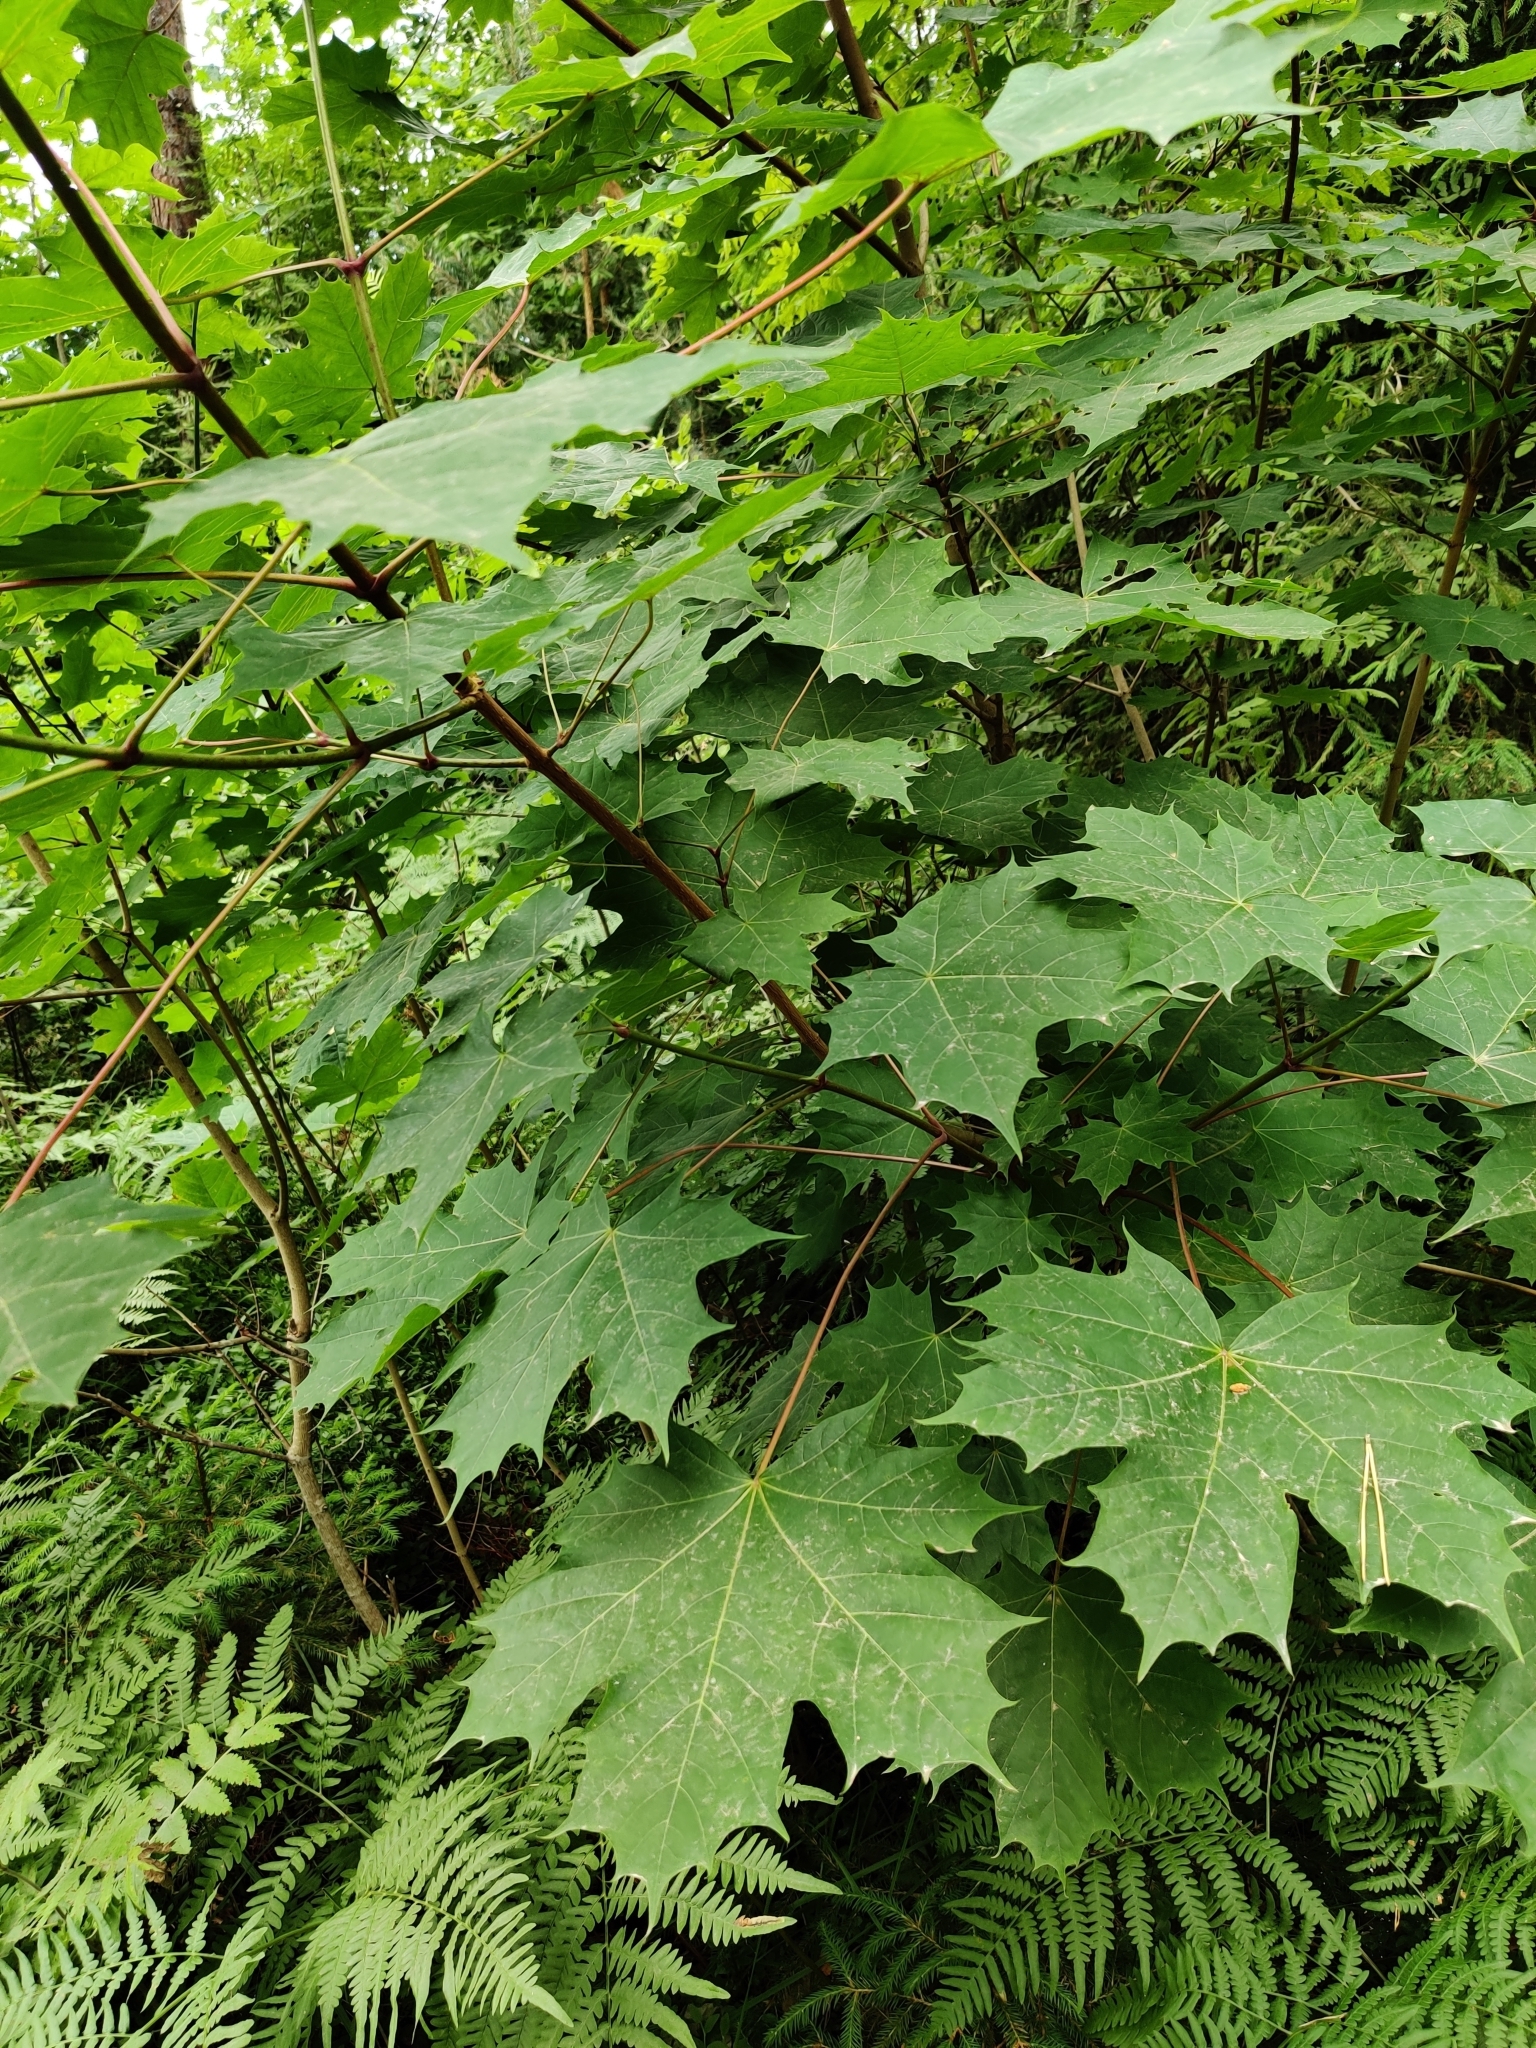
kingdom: Plantae
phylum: Tracheophyta
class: Magnoliopsida
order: Sapindales
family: Sapindaceae
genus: Acer
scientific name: Acer platanoides
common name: Norway maple
